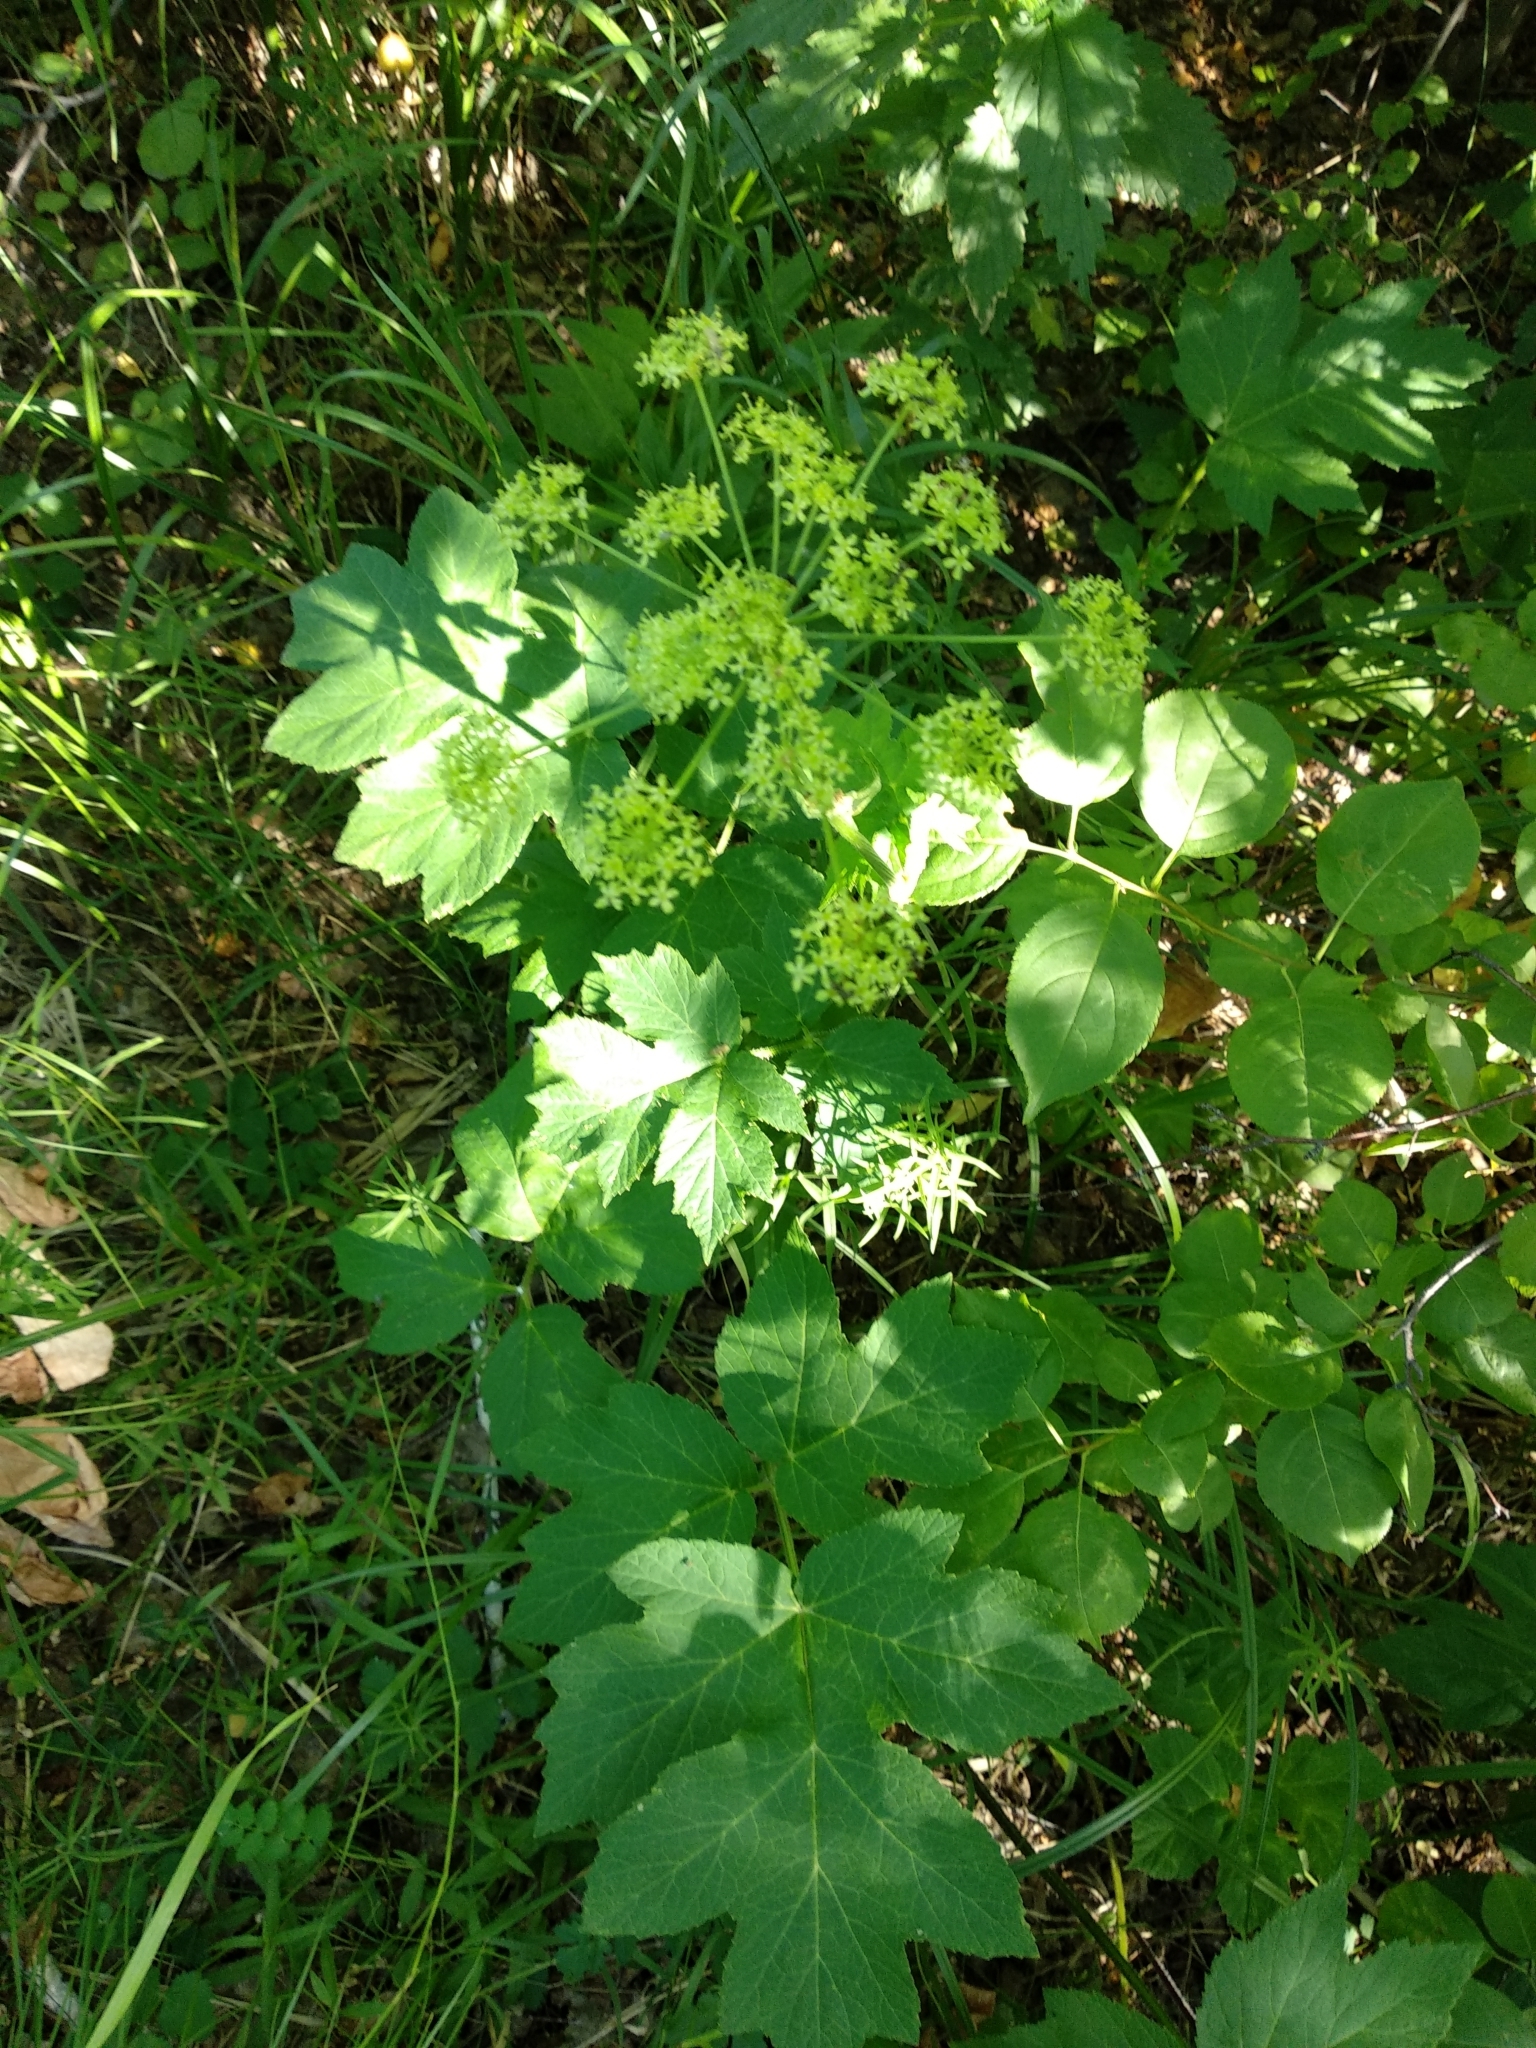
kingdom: Plantae
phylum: Tracheophyta
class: Magnoliopsida
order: Apiales
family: Apiaceae
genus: Heracleum
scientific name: Heracleum sphondylium
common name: Hogweed
